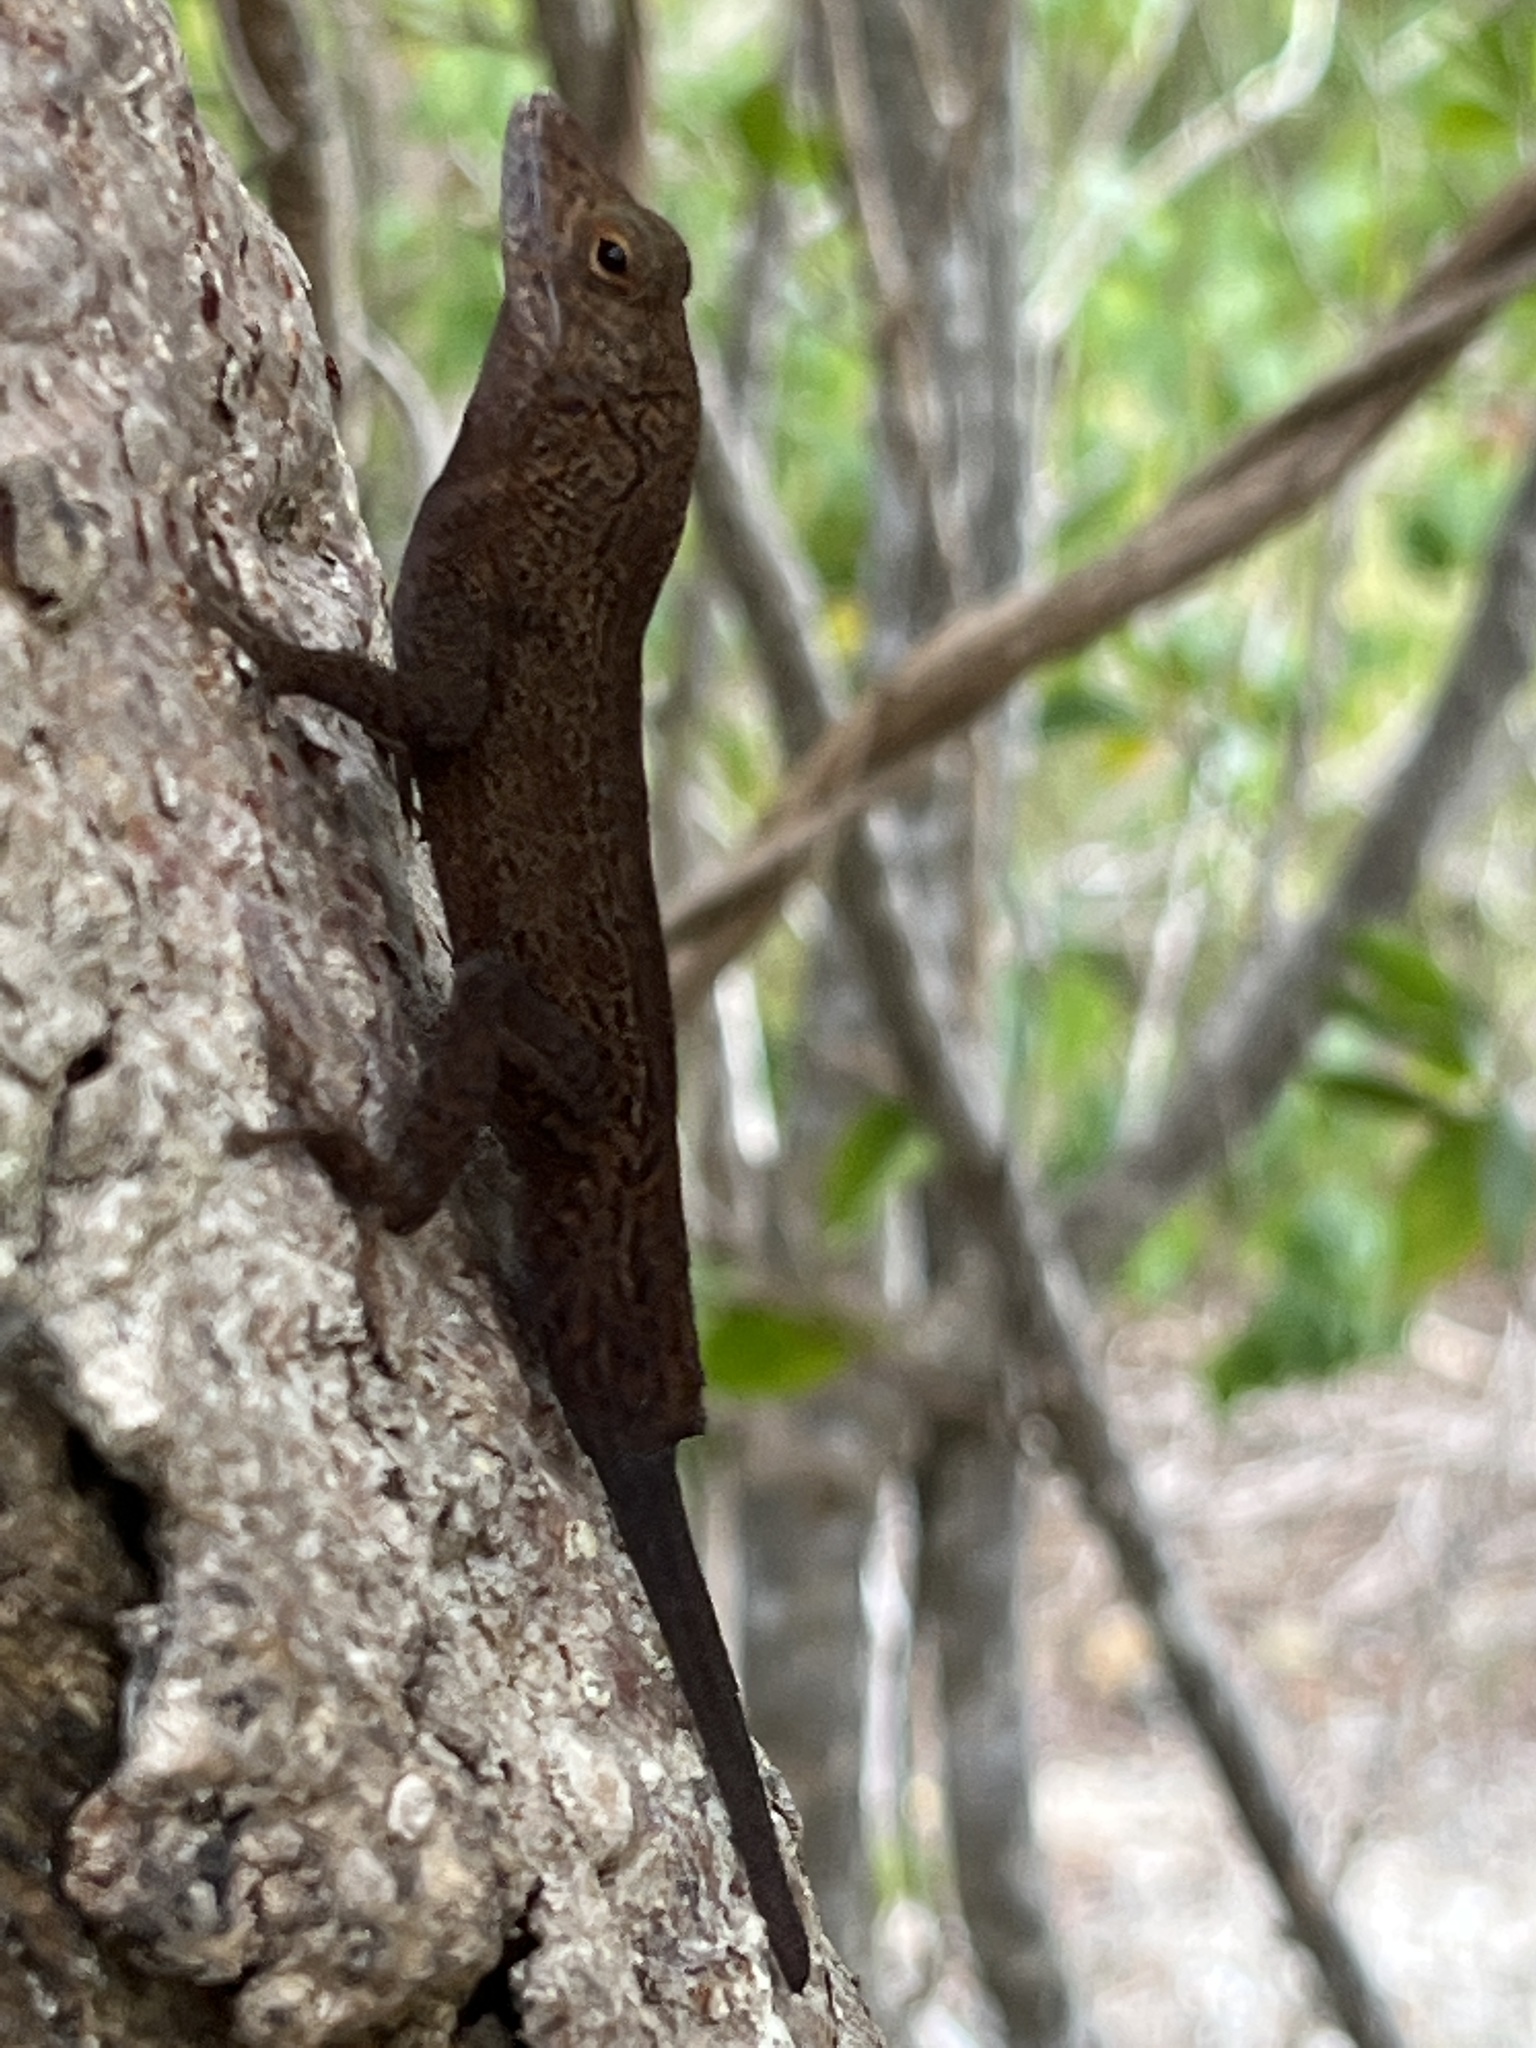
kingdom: Animalia
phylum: Chordata
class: Squamata
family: Dactyloidae
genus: Anolis
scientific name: Anolis cristatellus
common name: Crested anole
